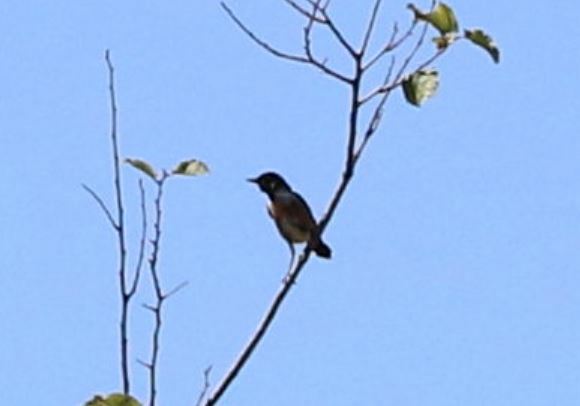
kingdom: Animalia
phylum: Chordata
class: Aves
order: Passeriformes
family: Muscicapidae
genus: Saxicola
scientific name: Saxicola rubicola
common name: European stonechat
